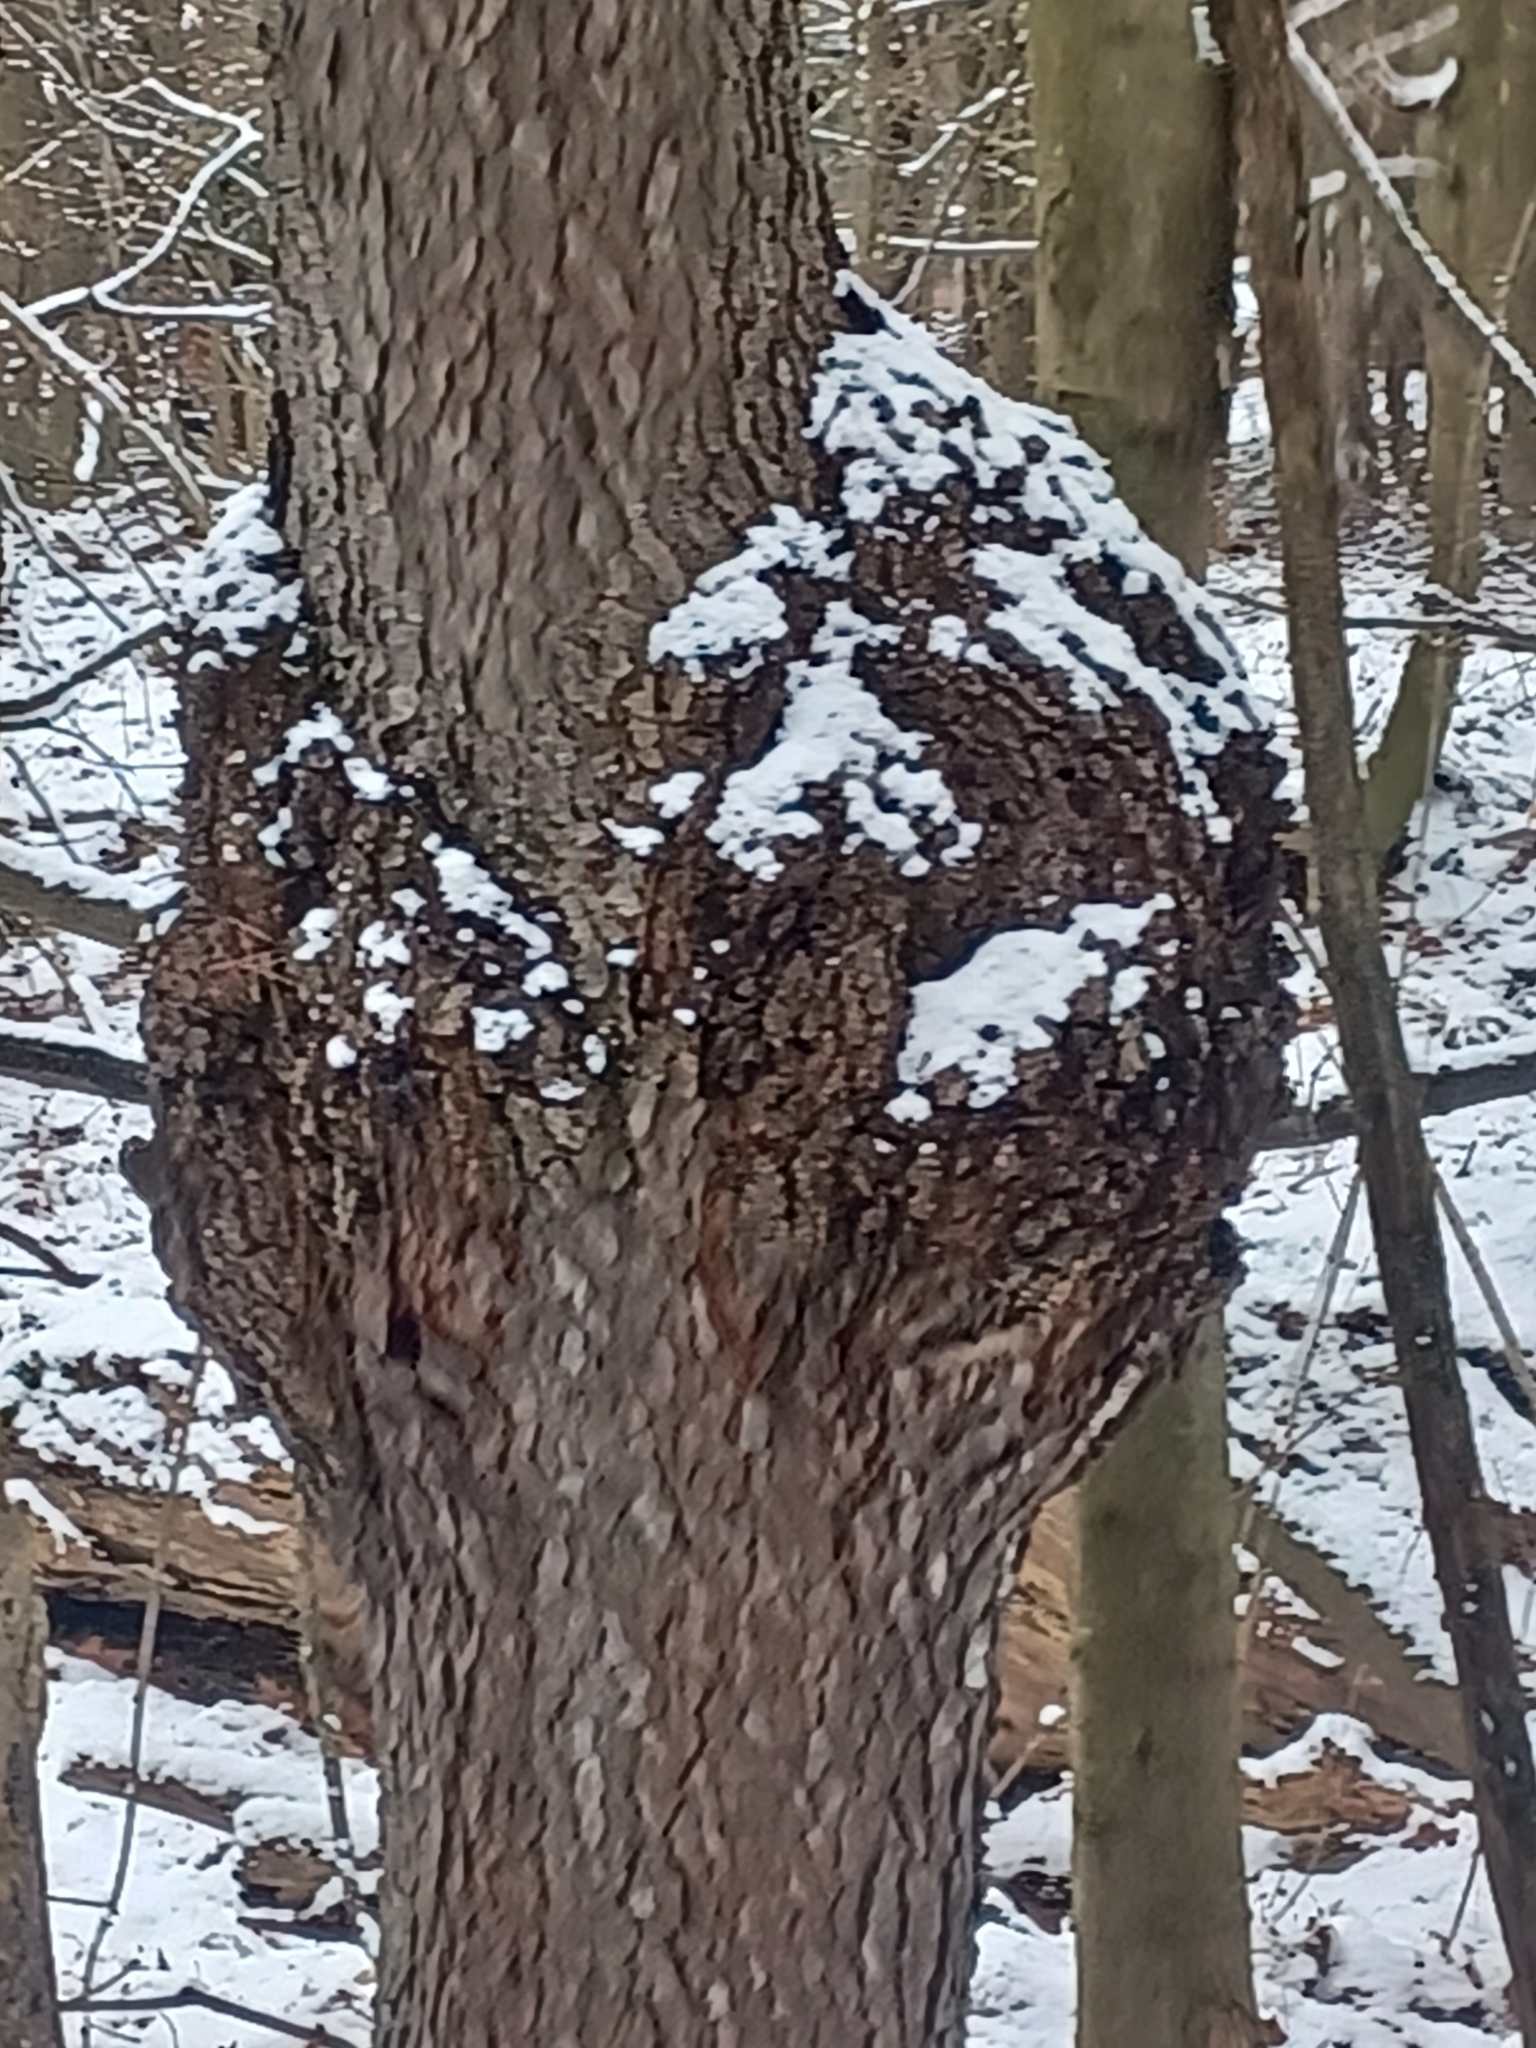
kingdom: Bacteria
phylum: Proteobacteria
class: Alphaproteobacteria
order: Rhizobiales
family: Rhizobiaceae
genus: Rhizobium
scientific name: Rhizobium Agrobacterium radiobacter
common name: Bacterial crown gall
